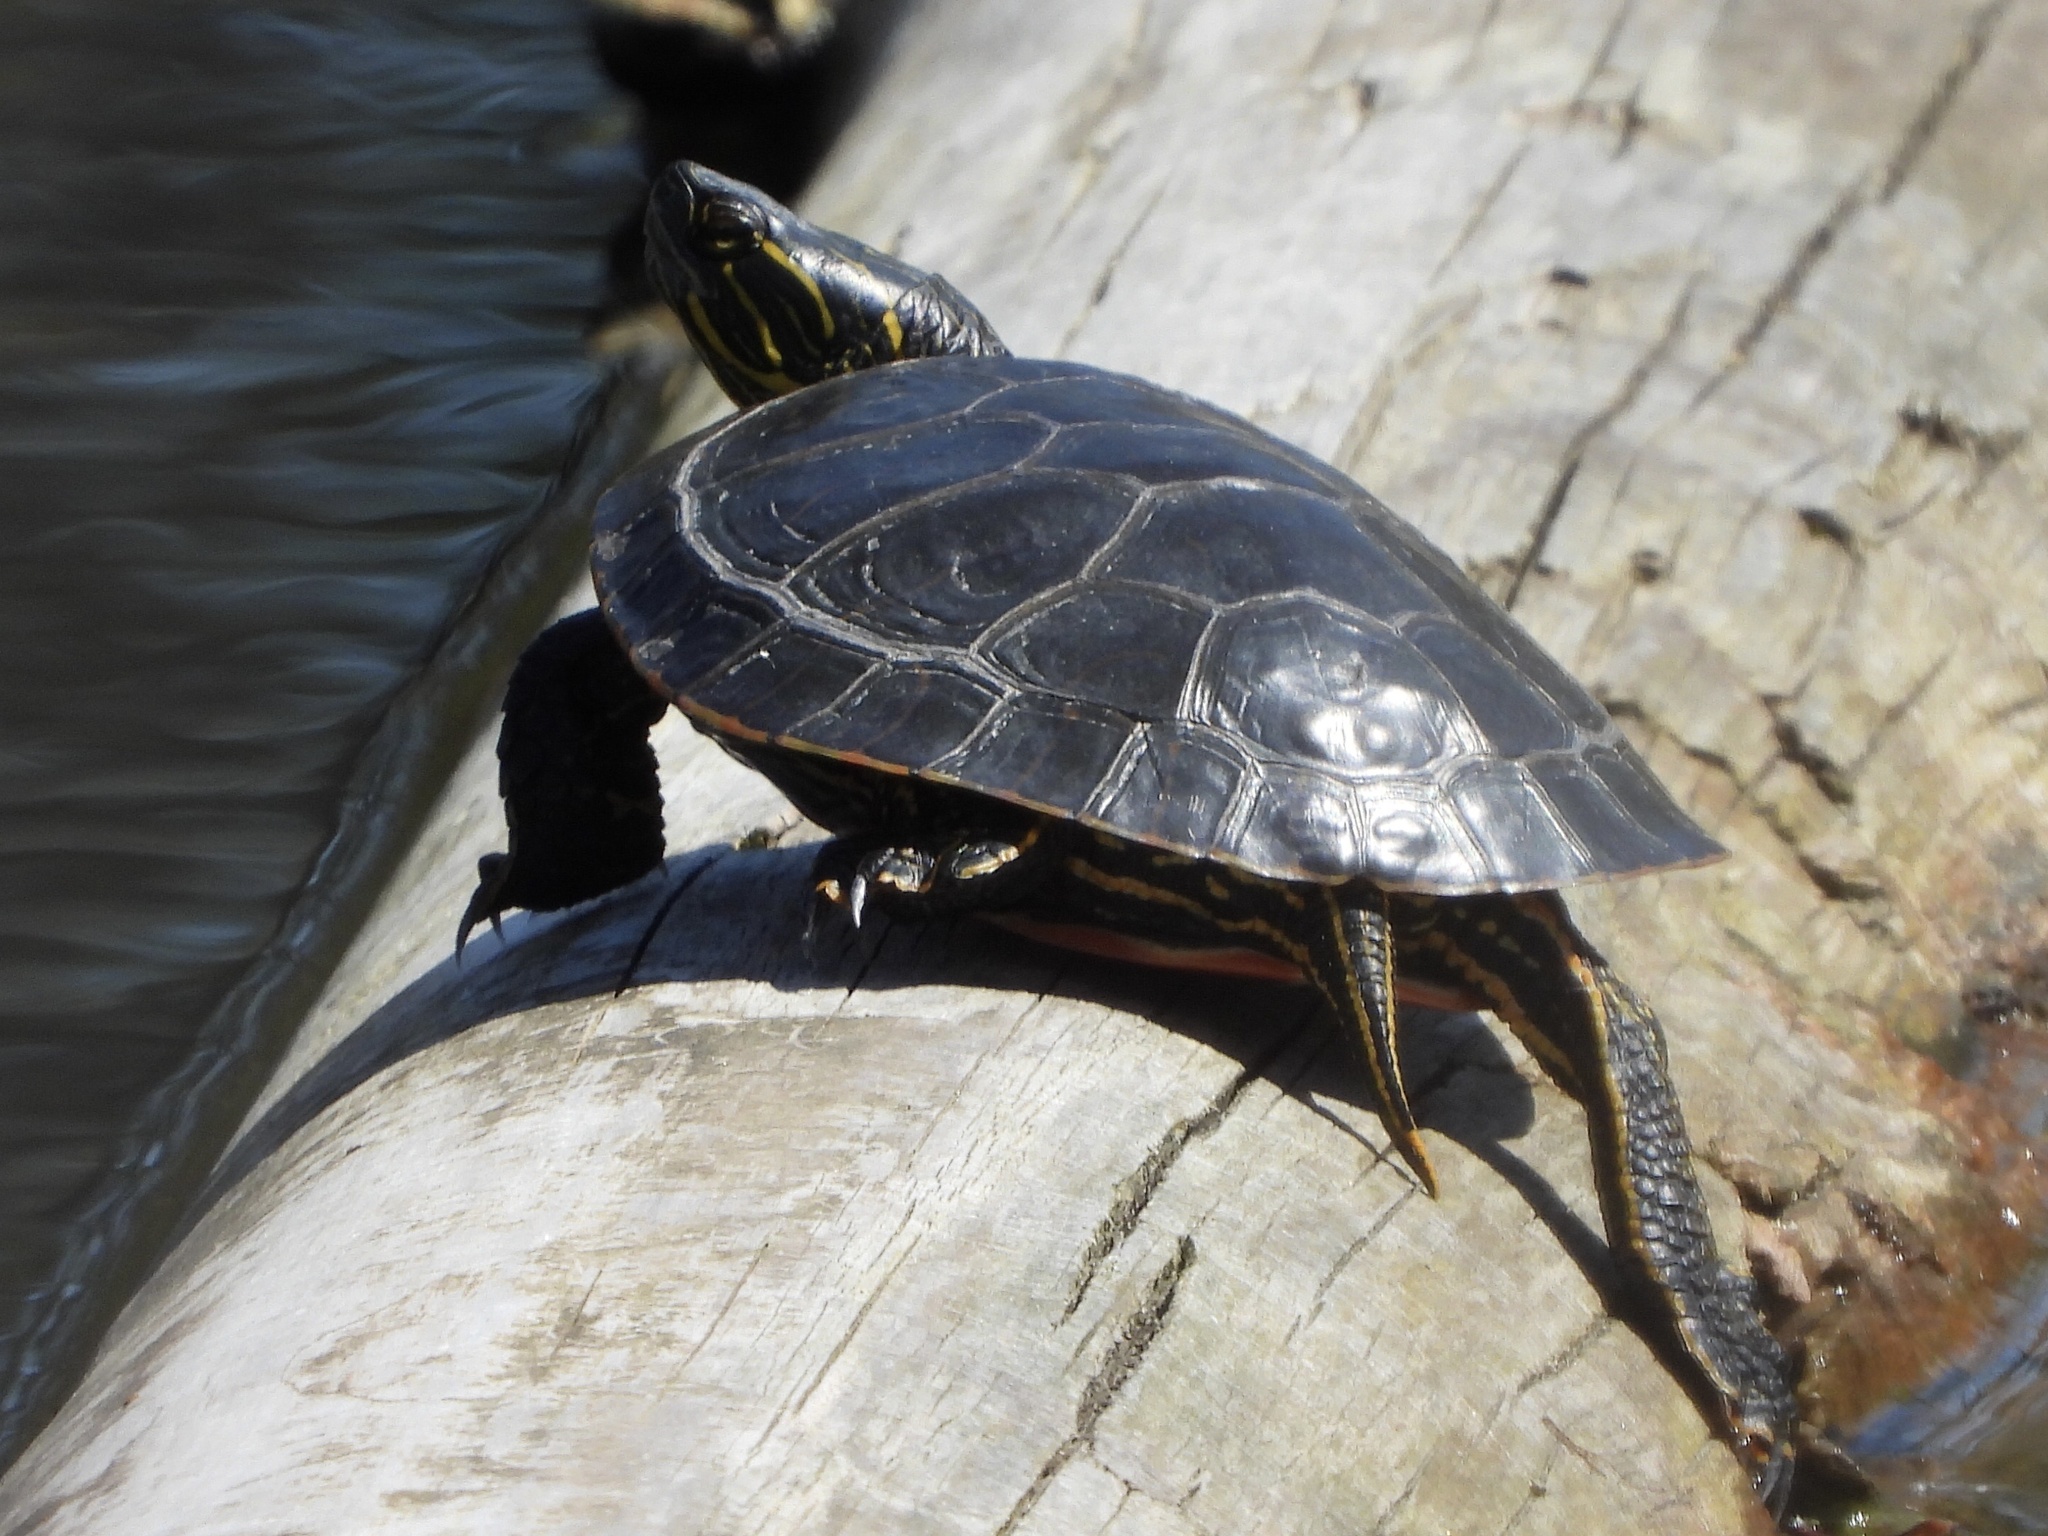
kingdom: Animalia
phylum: Chordata
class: Testudines
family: Emydidae
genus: Chrysemys
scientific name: Chrysemys picta
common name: Painted turtle
